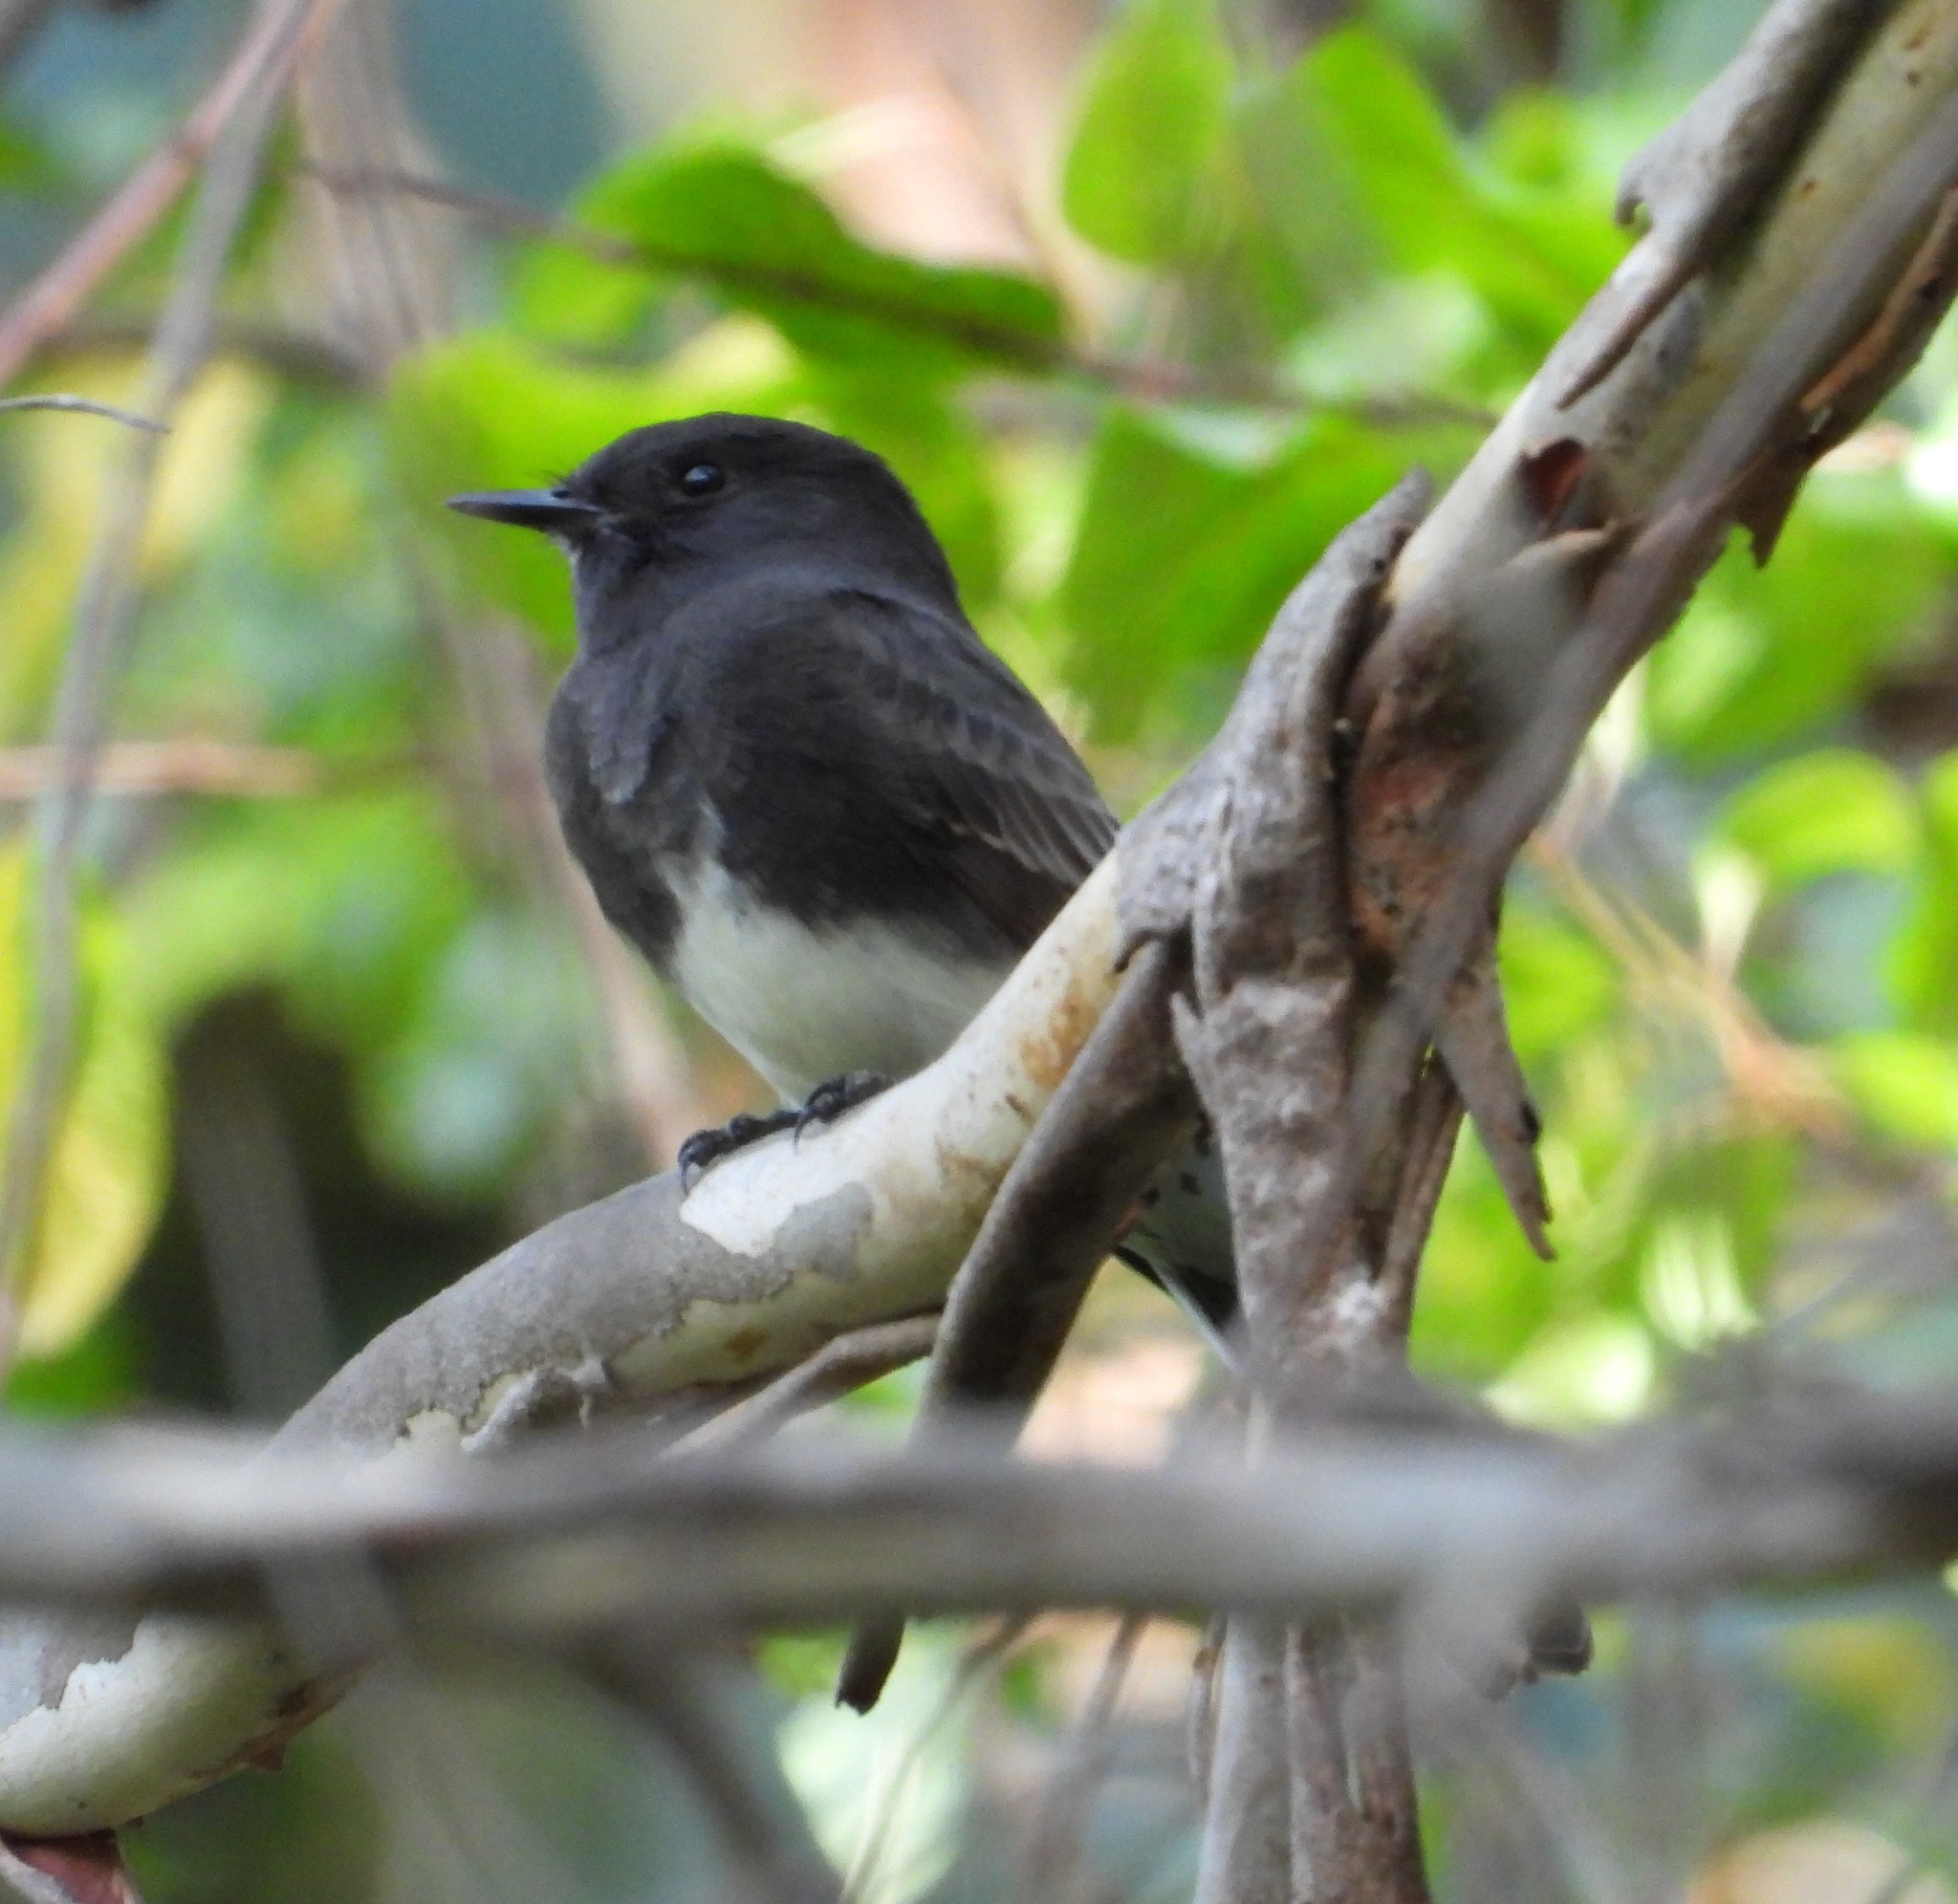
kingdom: Animalia
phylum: Chordata
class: Aves
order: Passeriformes
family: Tyrannidae
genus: Sayornis
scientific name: Sayornis nigricans
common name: Black phoebe
